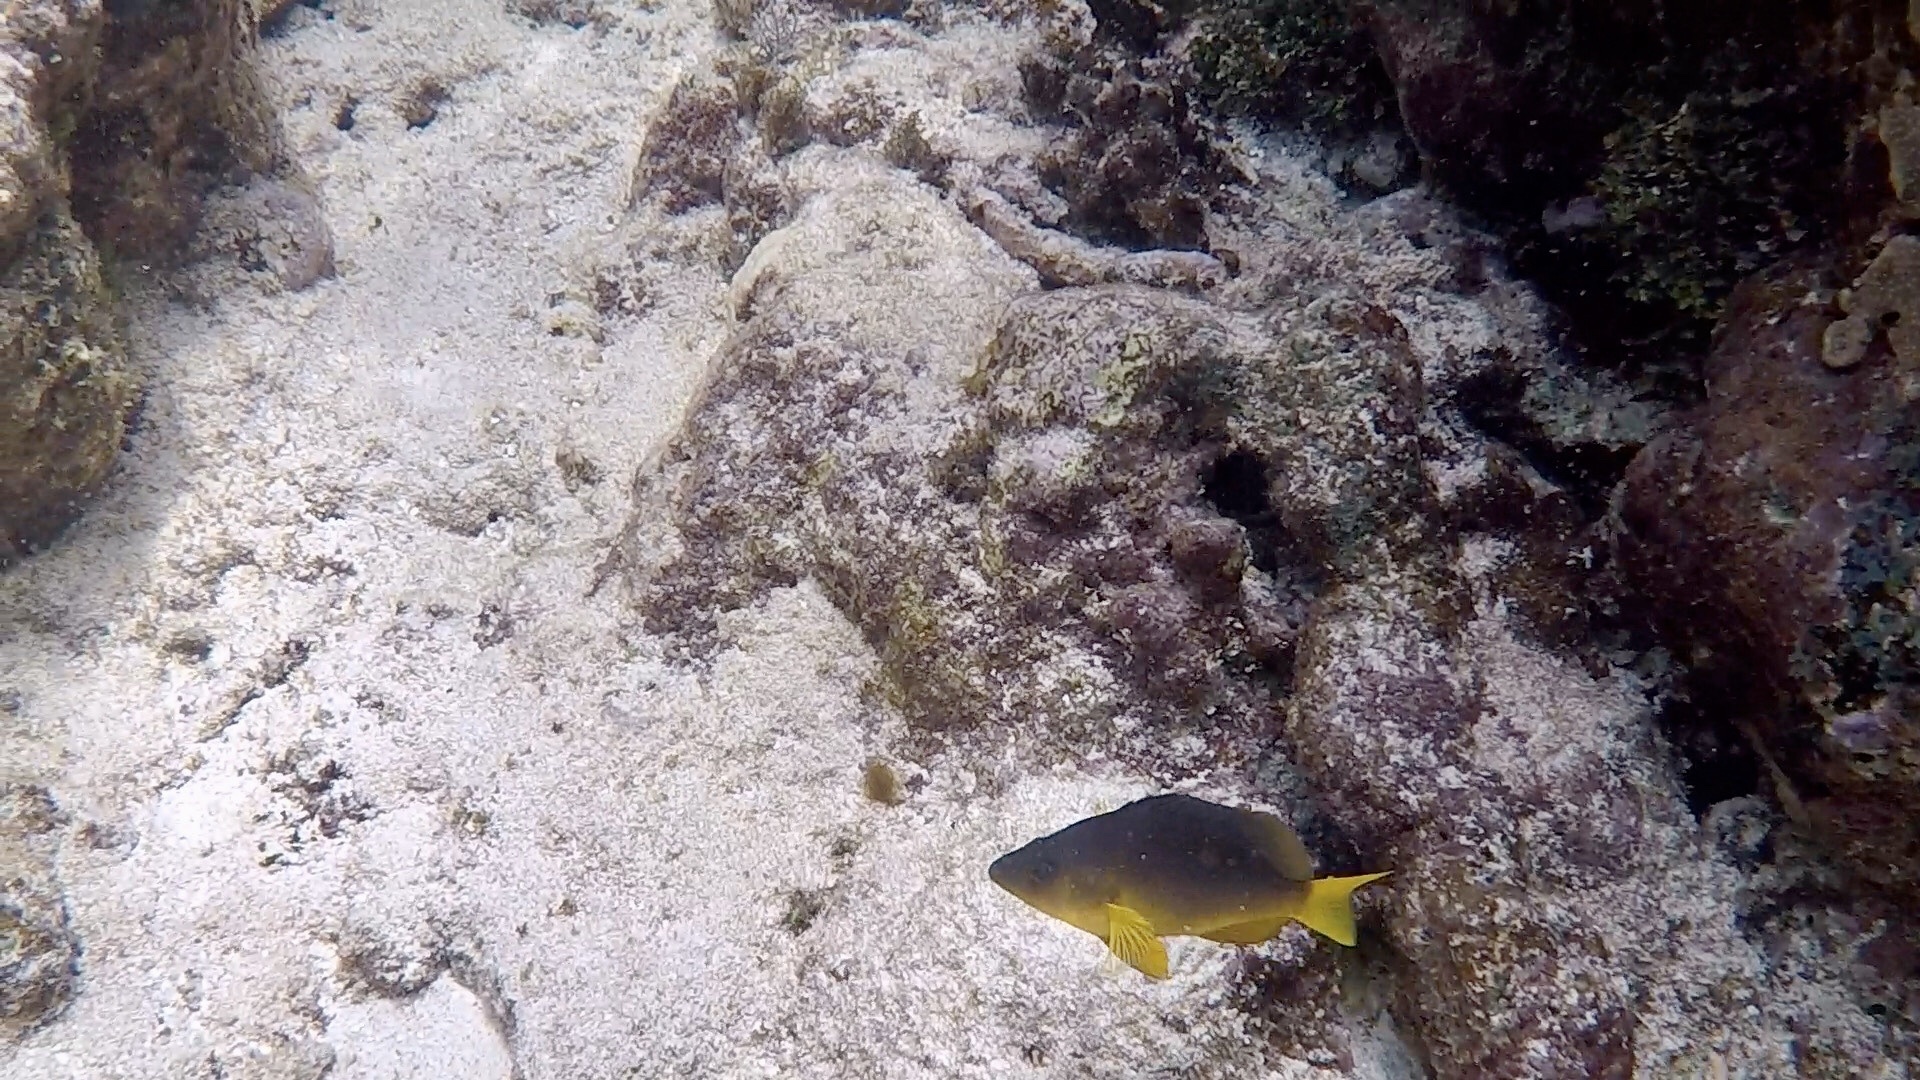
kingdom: Animalia
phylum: Chordata
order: Perciformes
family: Serranidae
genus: Hypoplectrus
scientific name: Hypoplectrus aberrans
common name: Yellowbelly hamlet
